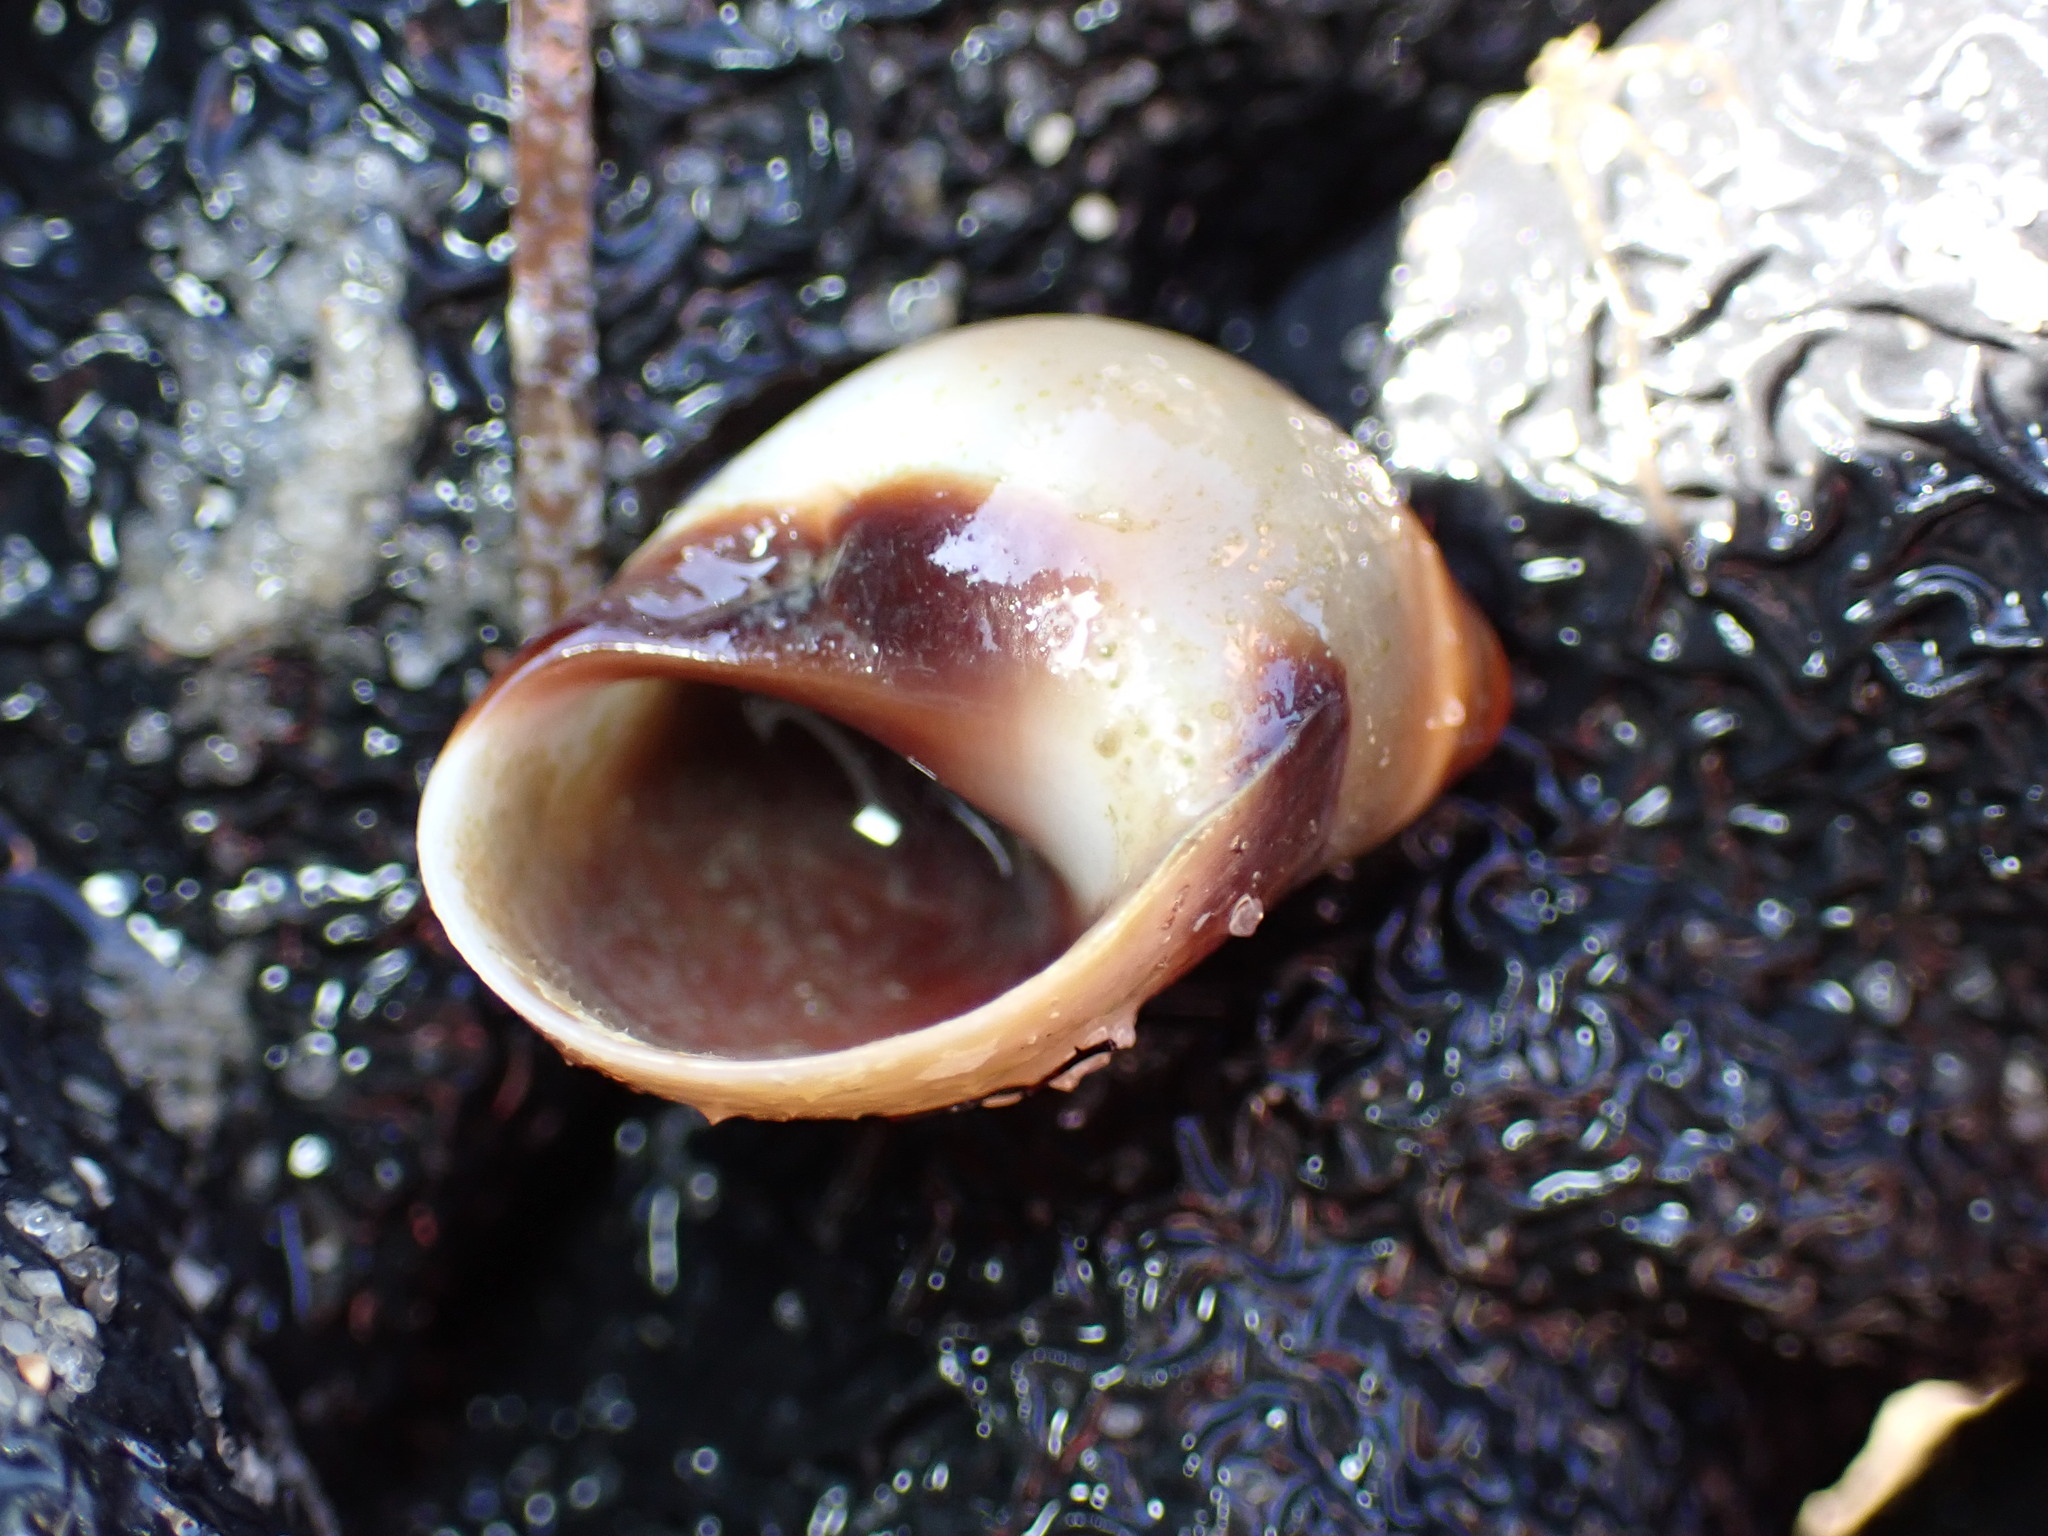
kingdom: Animalia
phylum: Mollusca
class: Gastropoda
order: Littorinimorpha
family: Naticidae
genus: Conuber
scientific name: Conuber conicum
